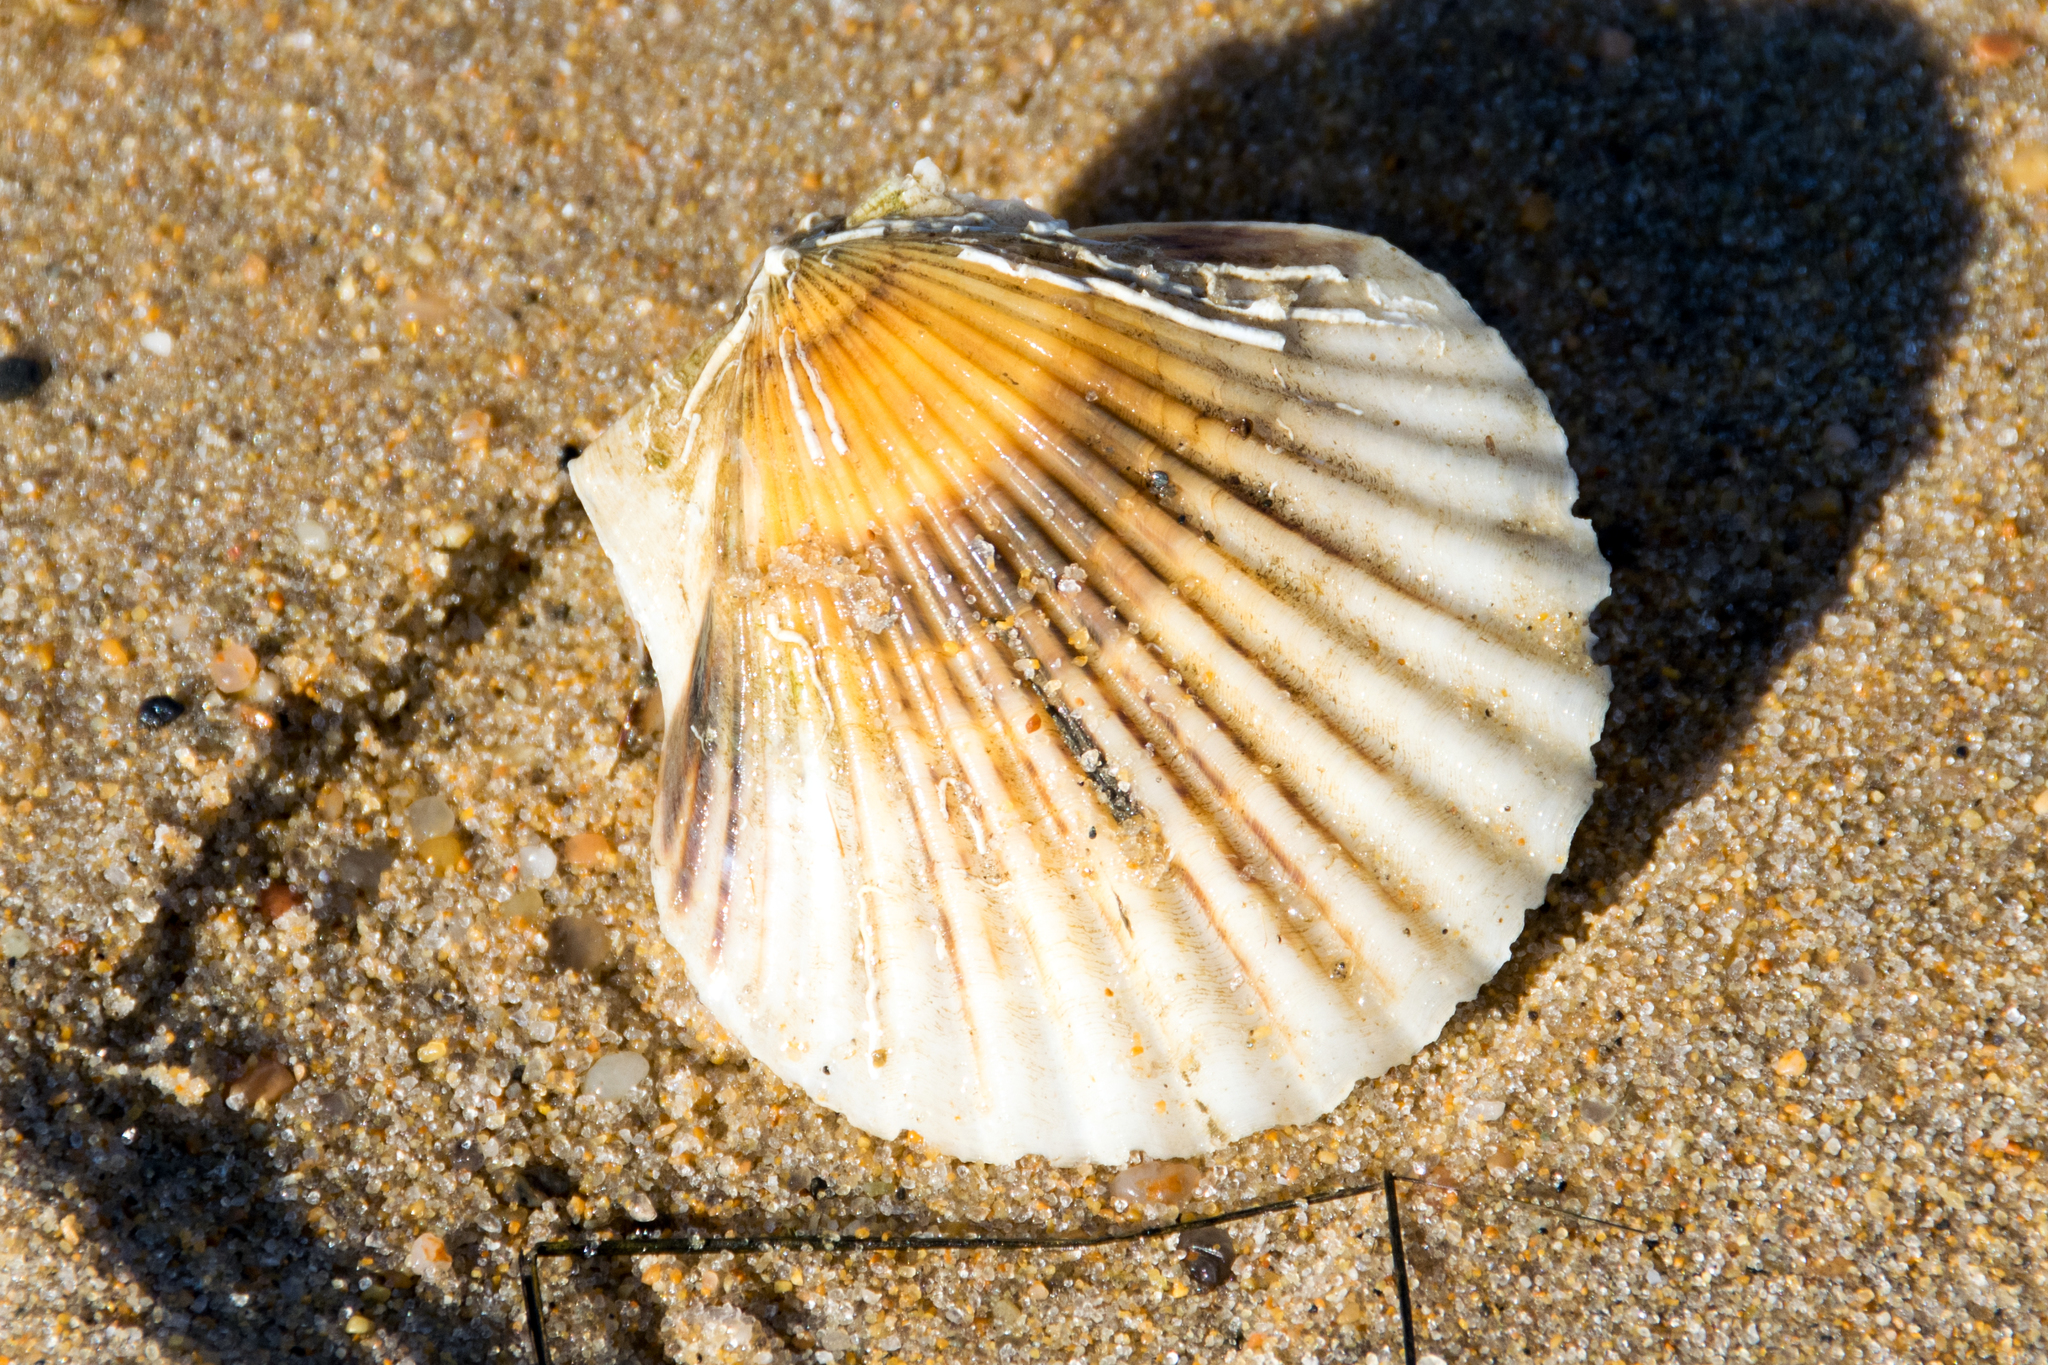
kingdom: Animalia
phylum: Mollusca
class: Bivalvia
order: Pectinida
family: Pectinidae
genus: Argopecten
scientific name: Argopecten irradians
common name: Atlantic bay scallop
